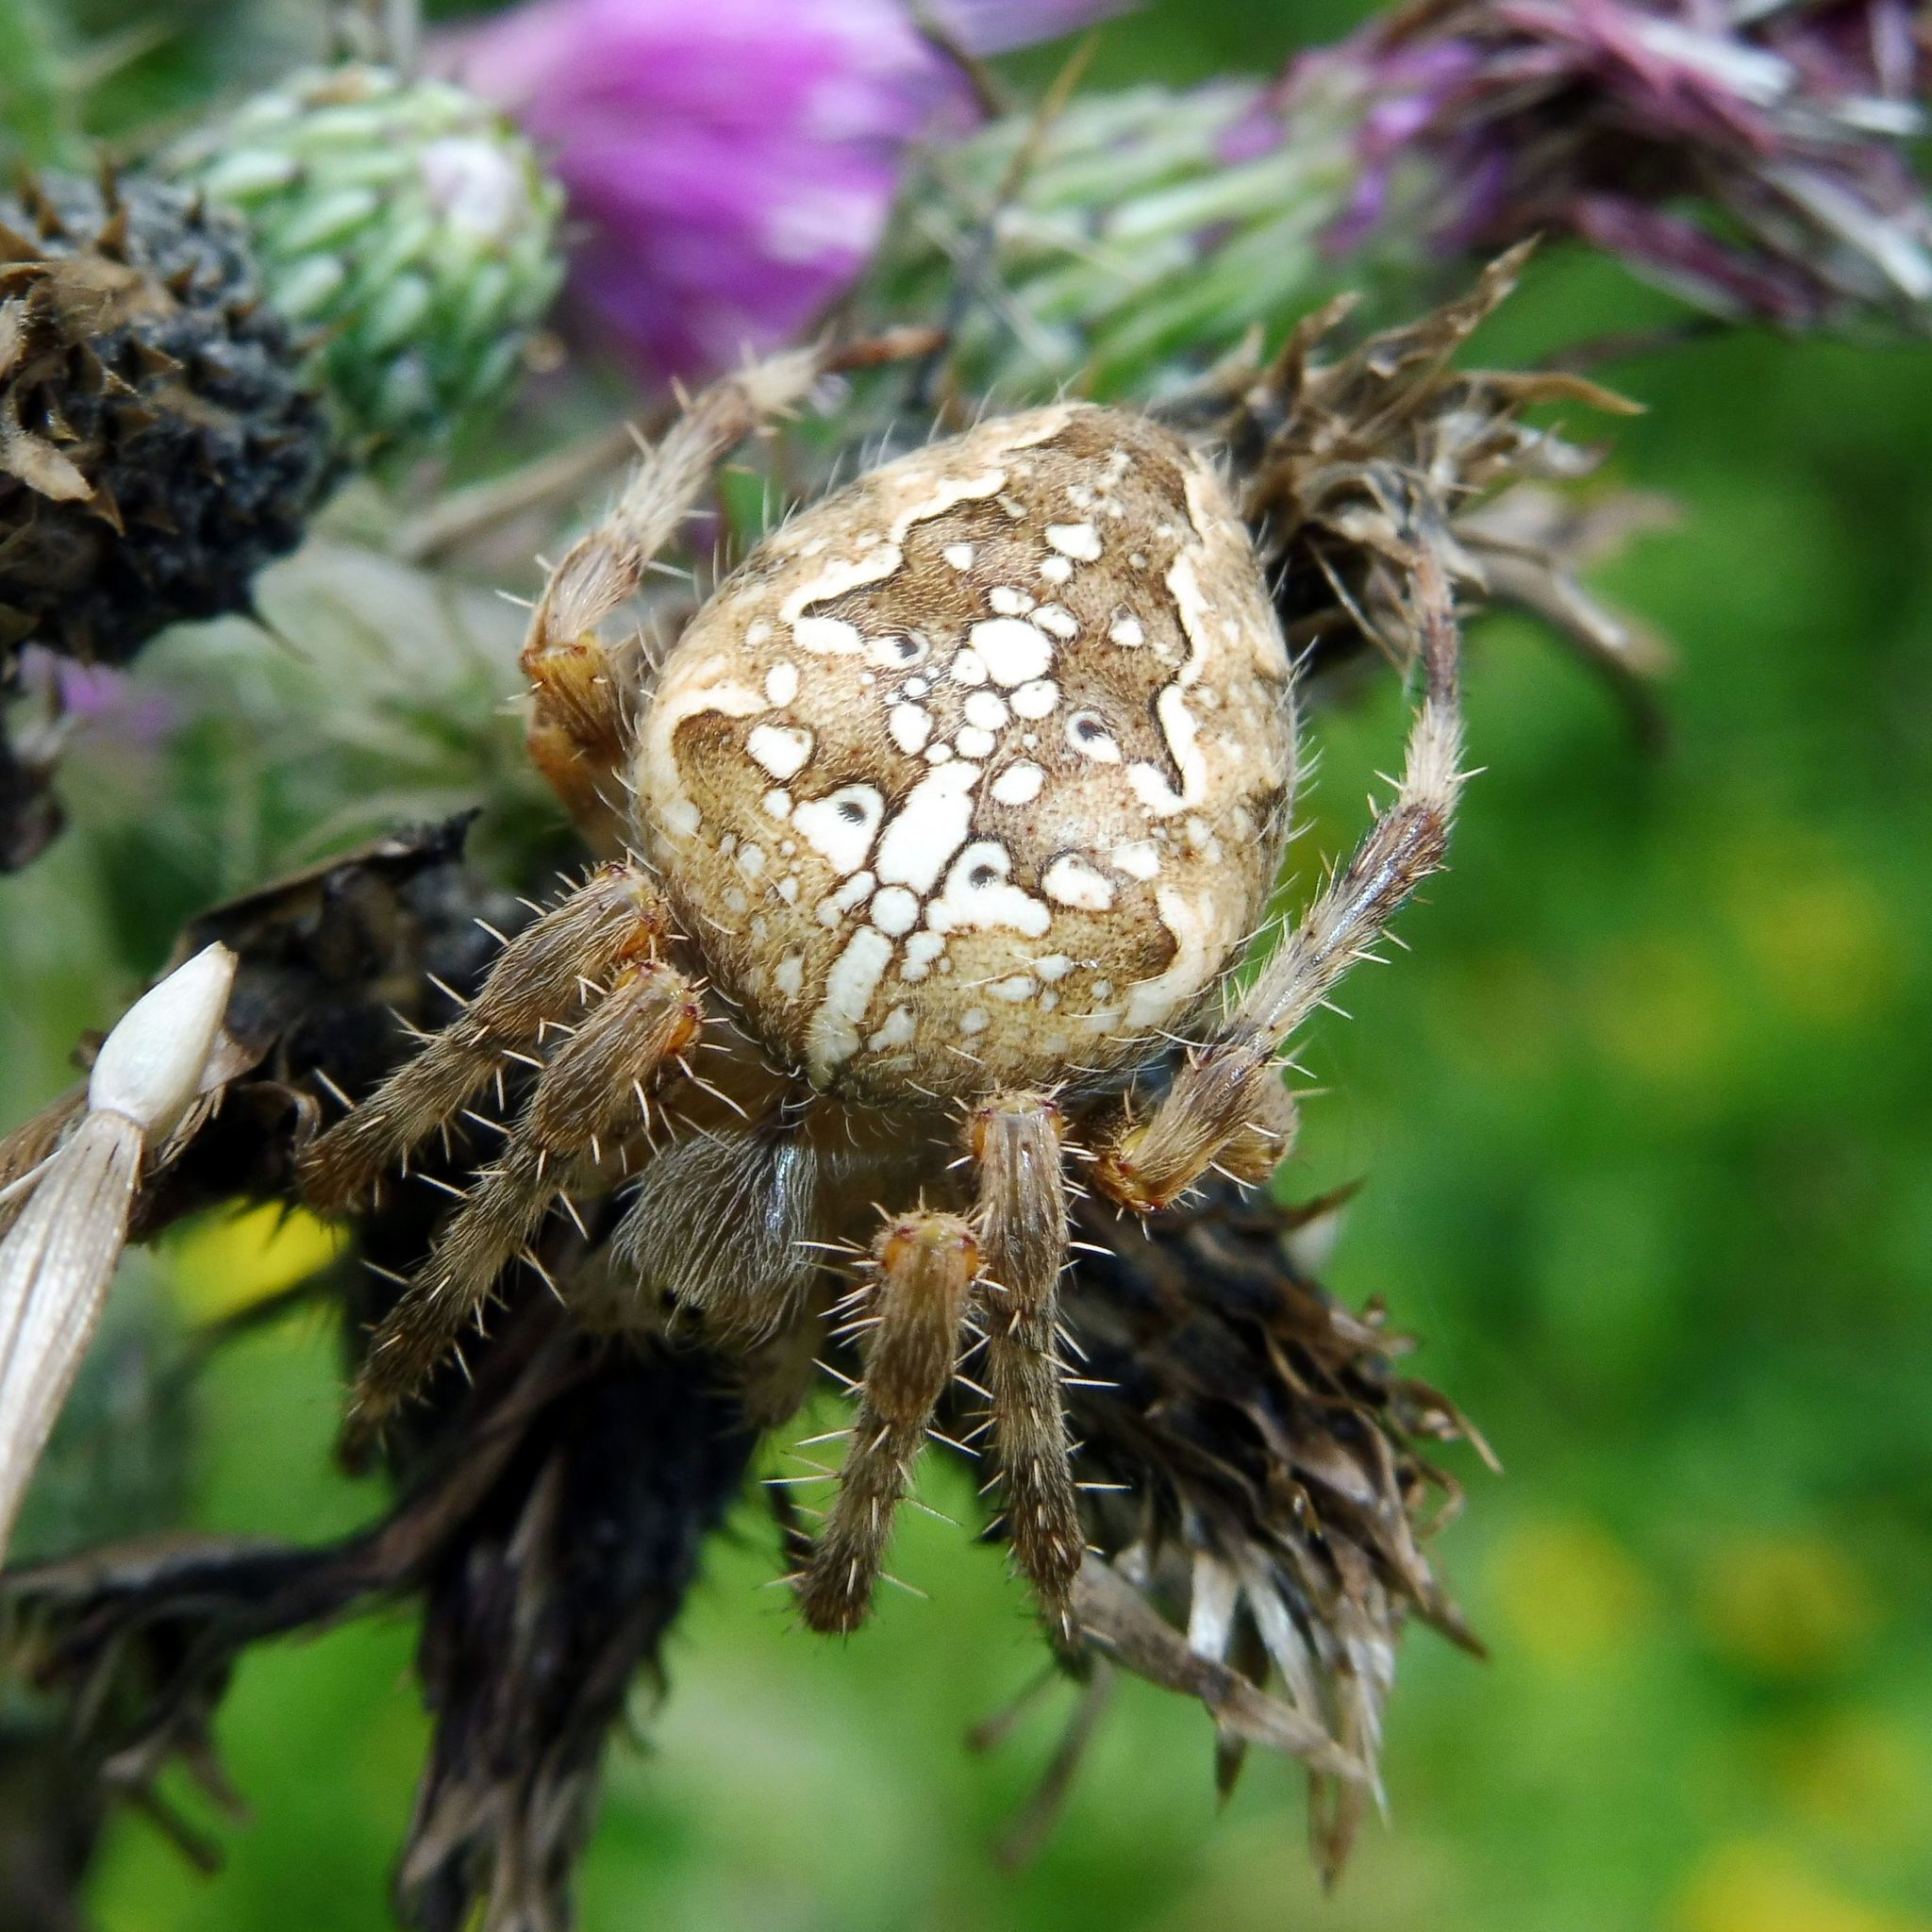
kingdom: Animalia
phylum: Arthropoda
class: Arachnida
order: Araneae
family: Araneidae
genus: Araneus
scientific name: Araneus diadematus
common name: Cross orbweaver
